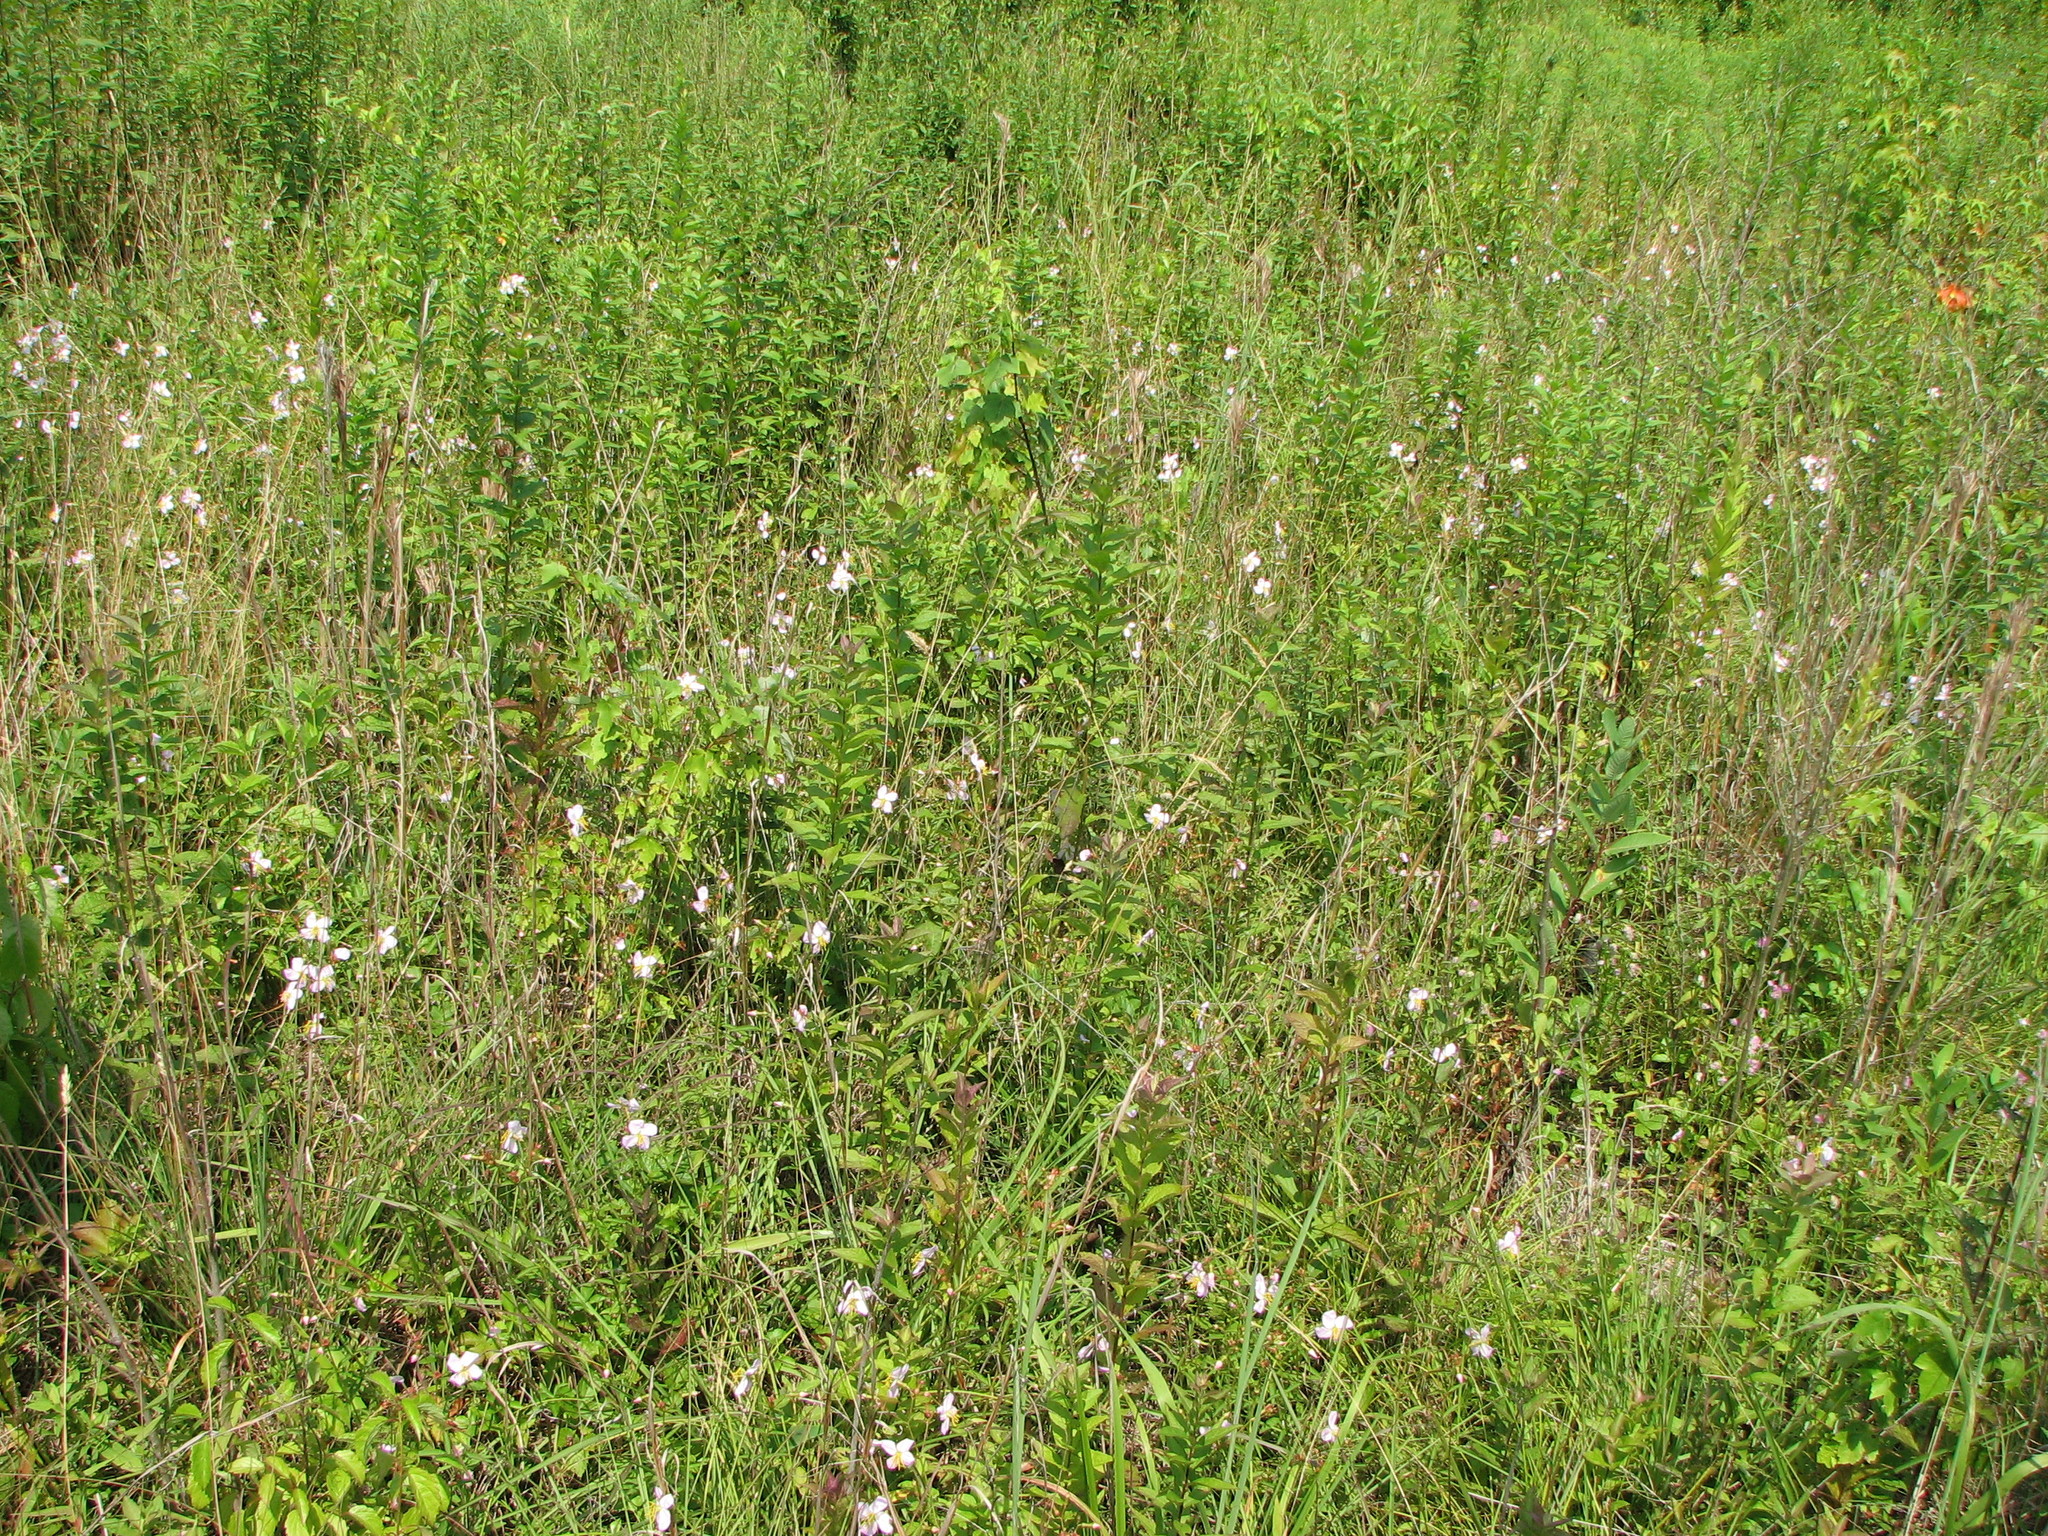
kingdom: Plantae
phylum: Tracheophyta
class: Magnoliopsida
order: Myrtales
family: Melastomataceae
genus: Rhexia
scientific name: Rhexia mariana
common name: Dull meadow-pitcher
